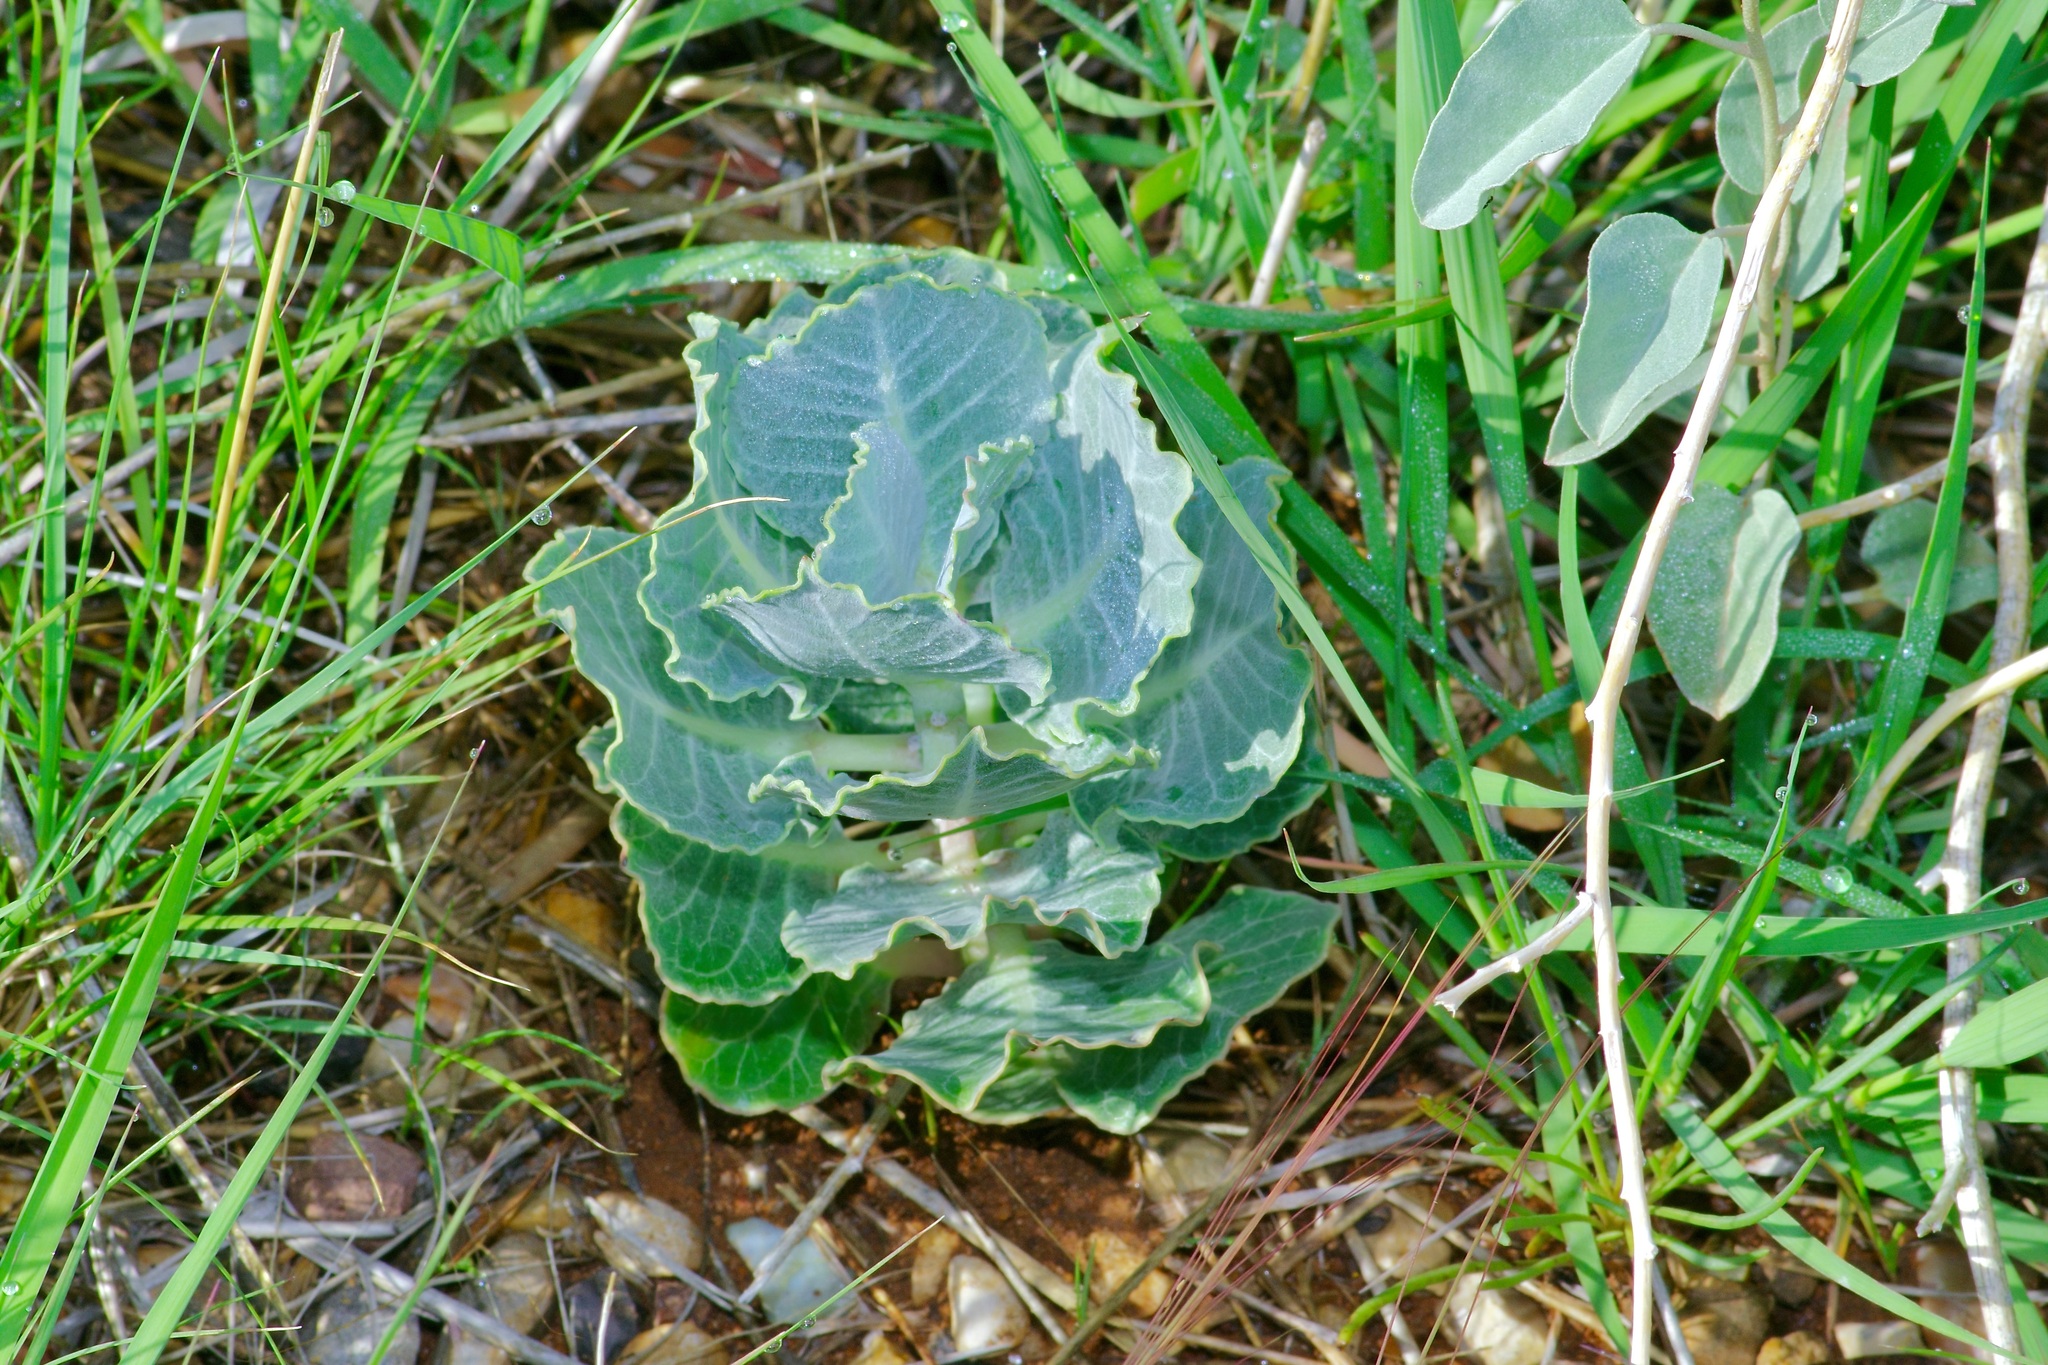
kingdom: Plantae
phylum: Tracheophyta
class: Magnoliopsida
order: Gentianales
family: Apocynaceae
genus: Asclepias
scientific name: Asclepias nummularia
